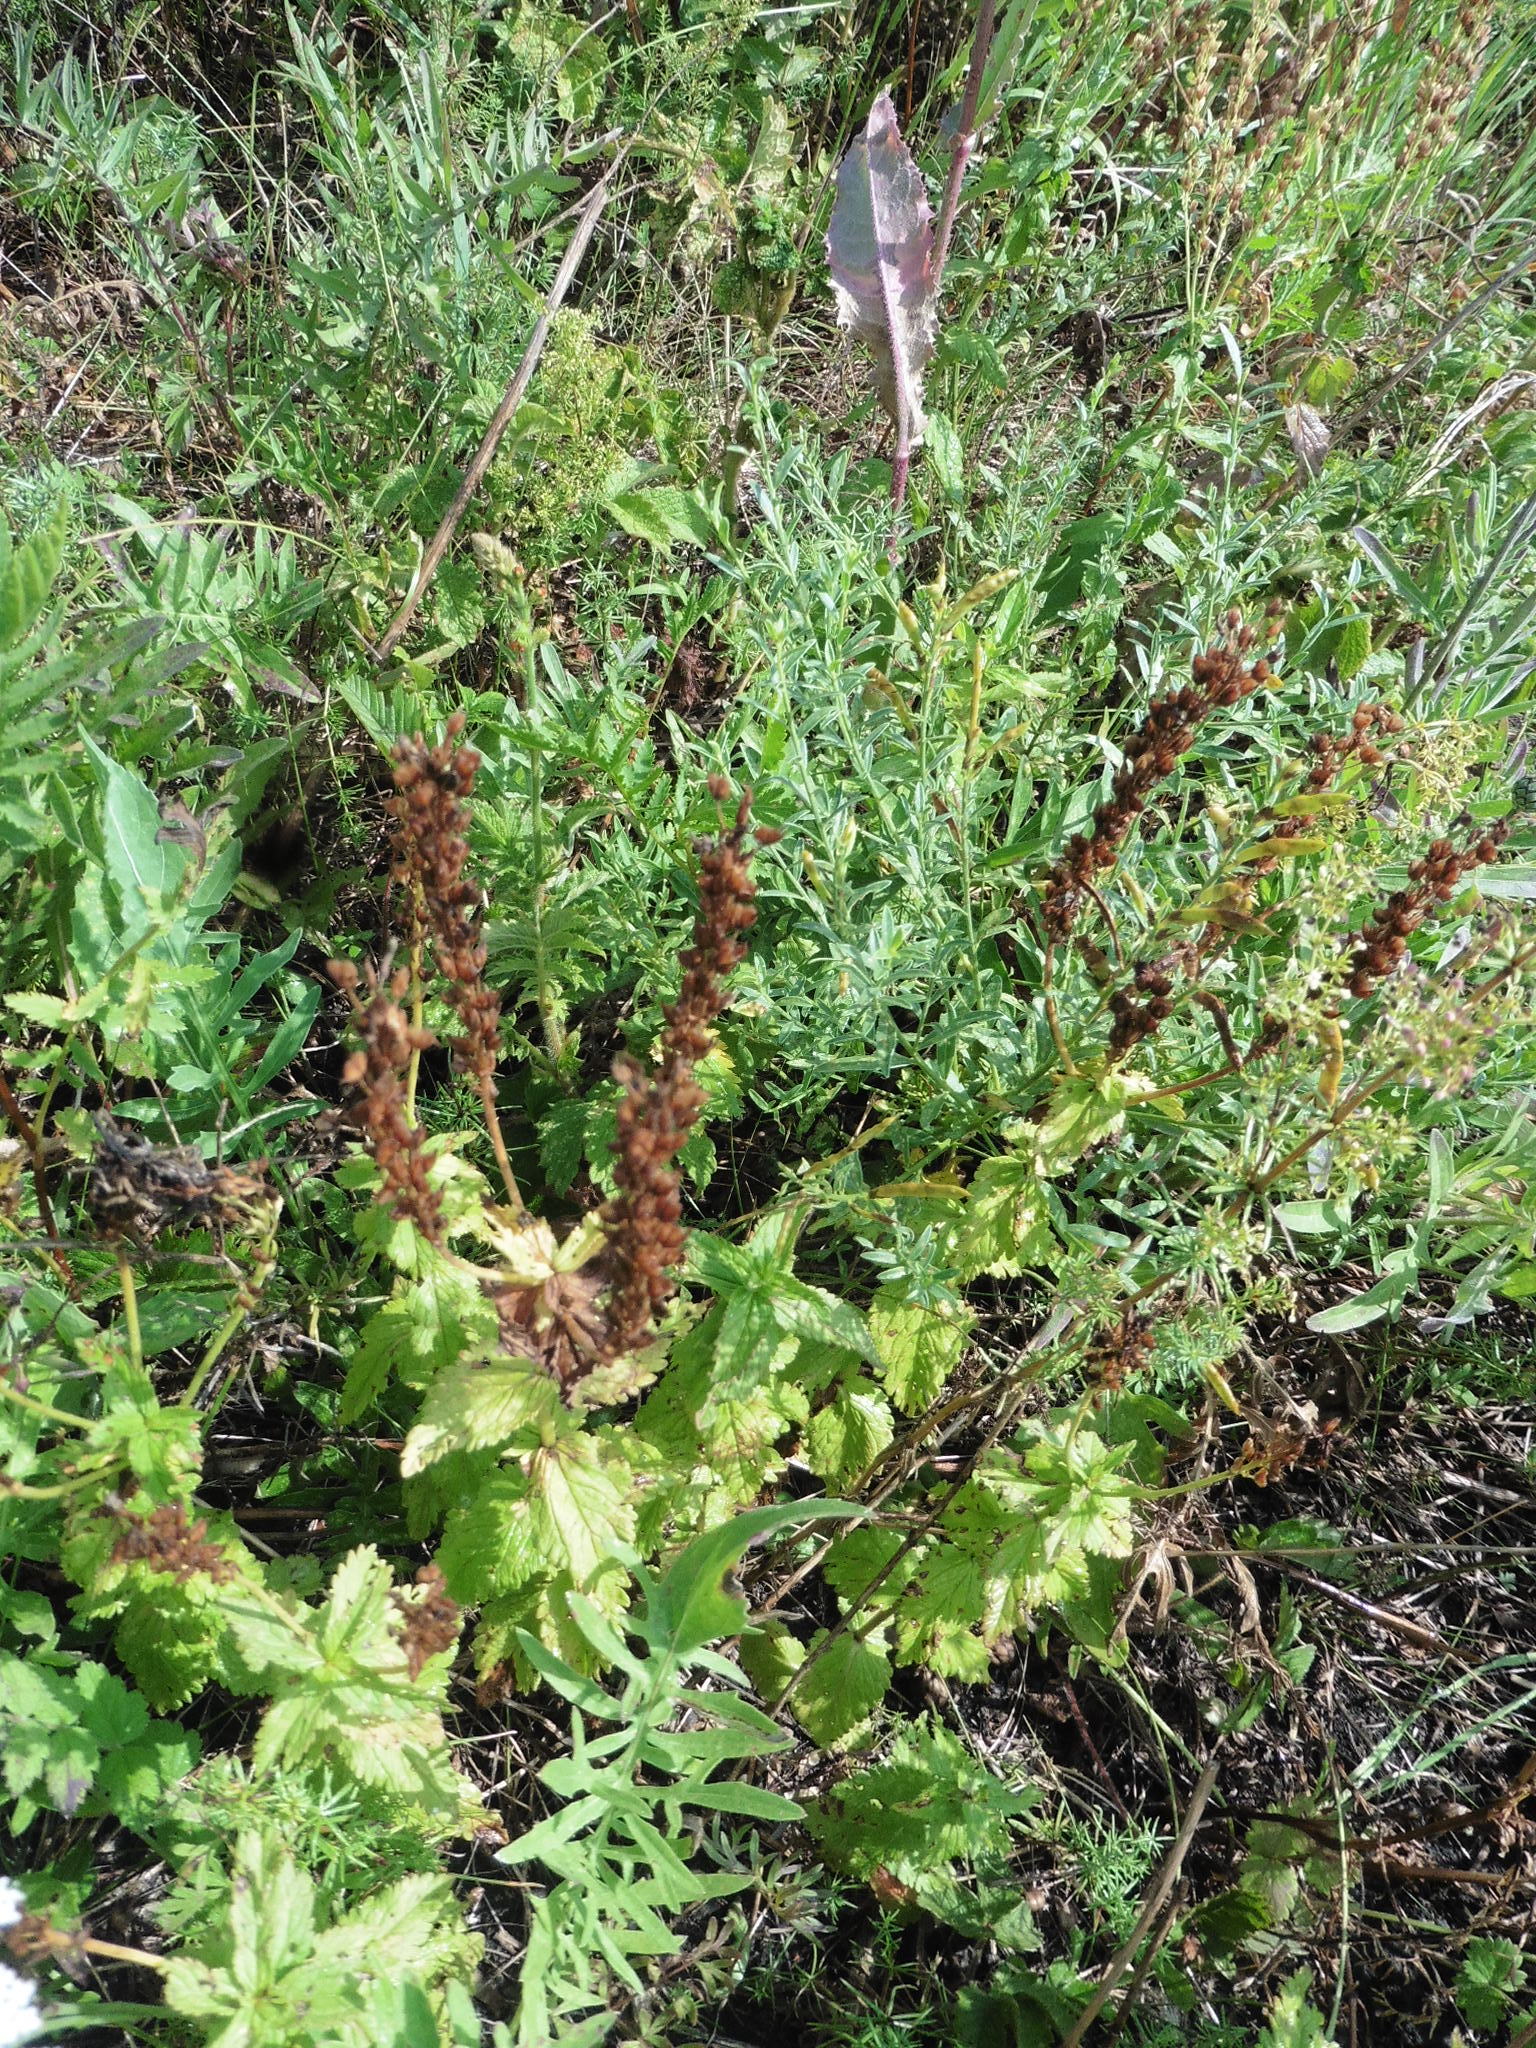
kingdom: Plantae
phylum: Tracheophyta
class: Magnoliopsida
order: Lamiales
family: Plantaginaceae
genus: Veronica
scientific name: Veronica teucrium
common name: Large speedwell
